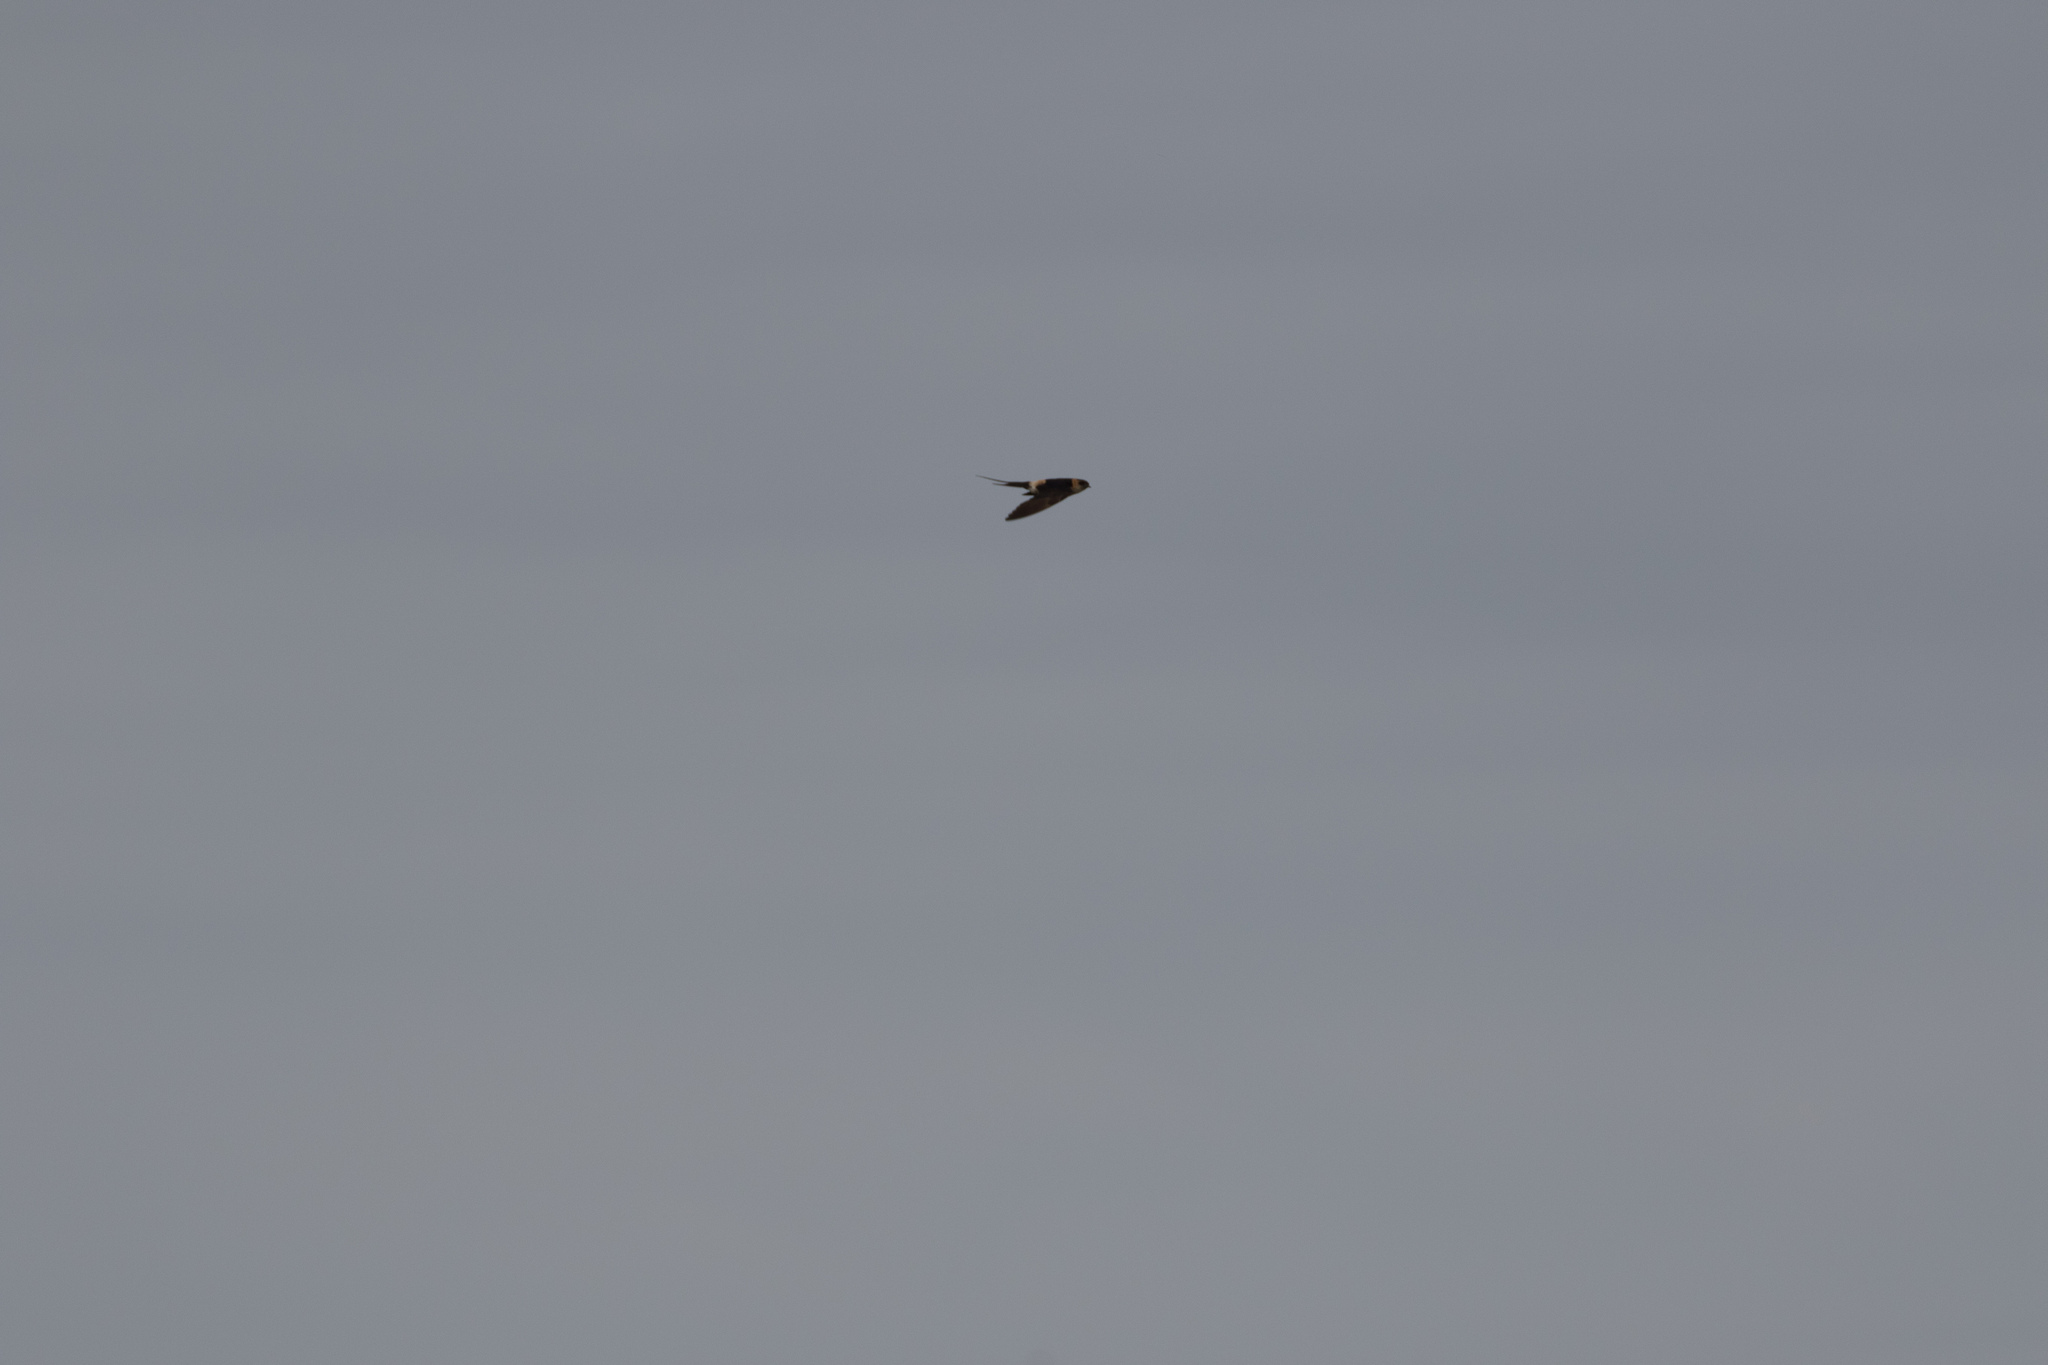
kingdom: Animalia
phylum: Chordata
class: Aves
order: Passeriformes
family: Hirundinidae
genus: Cecropis
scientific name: Cecropis daurica
